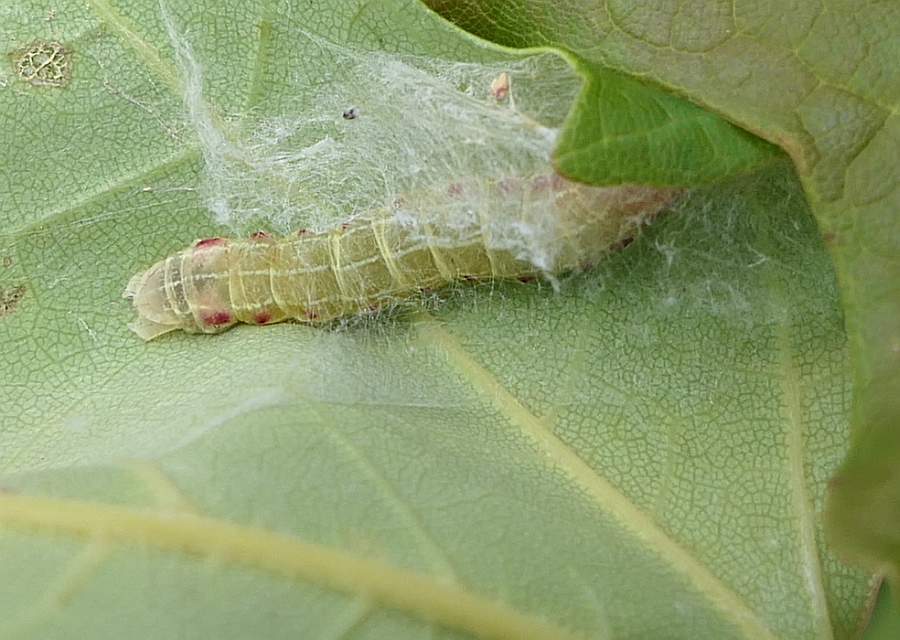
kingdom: Animalia
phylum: Arthropoda
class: Insecta
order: Lepidoptera
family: Noctuidae
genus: Achatia
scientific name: Achatia confusa
